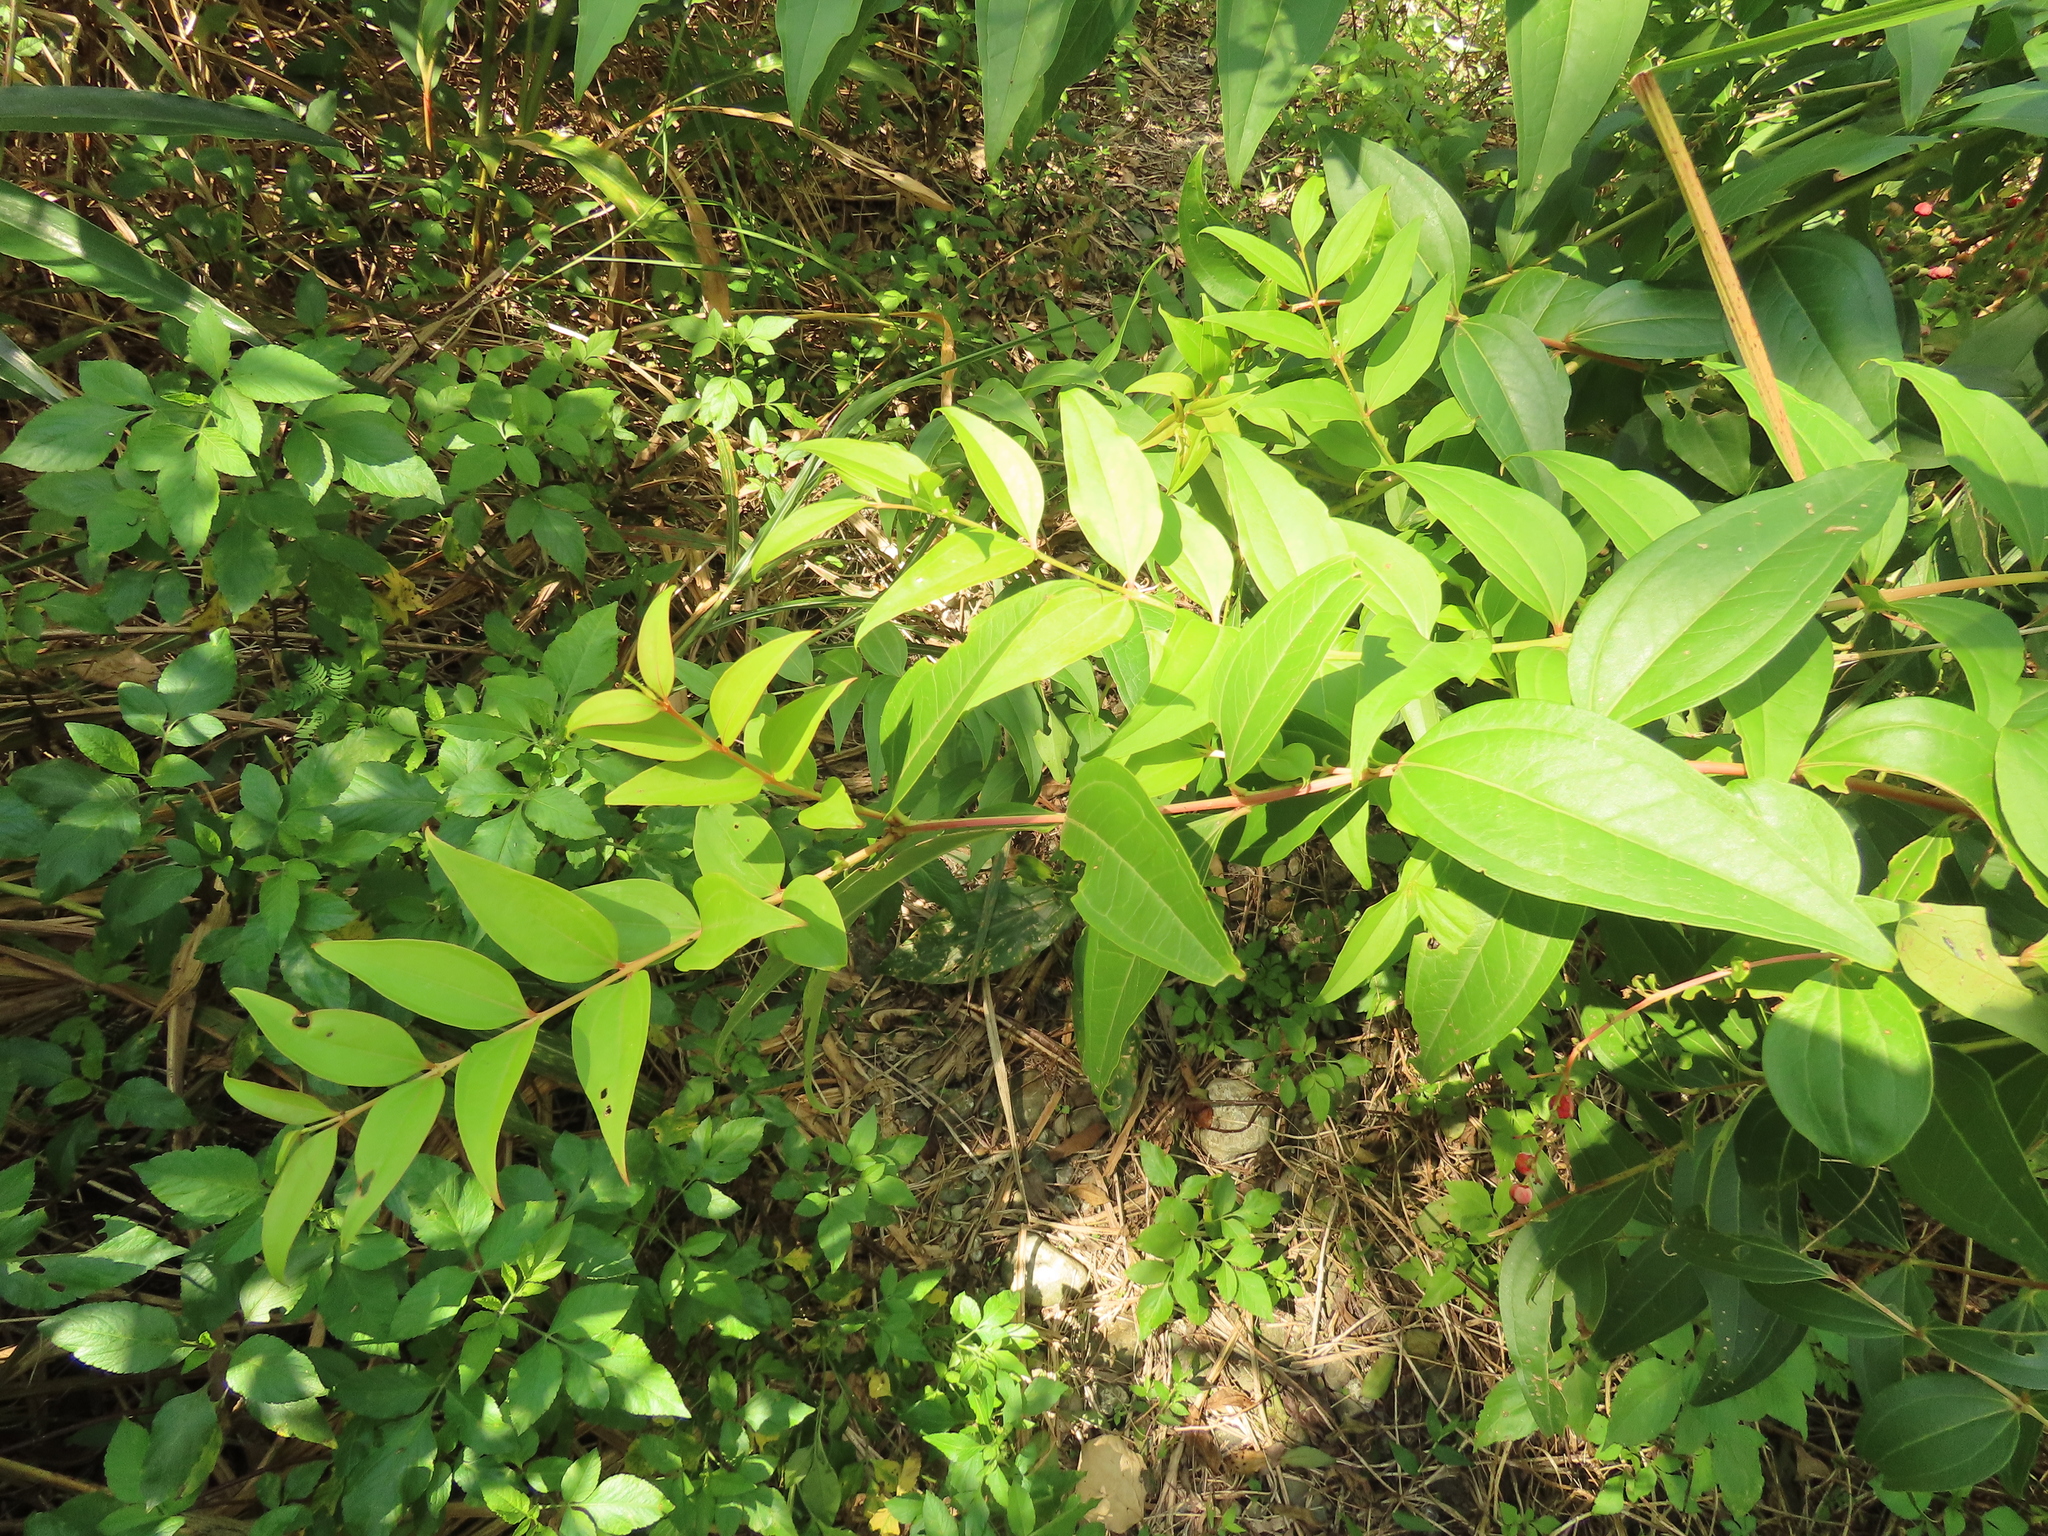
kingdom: Plantae
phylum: Tracheophyta
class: Magnoliopsida
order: Cucurbitales
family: Coriariaceae
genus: Coriaria
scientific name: Coriaria japonica
